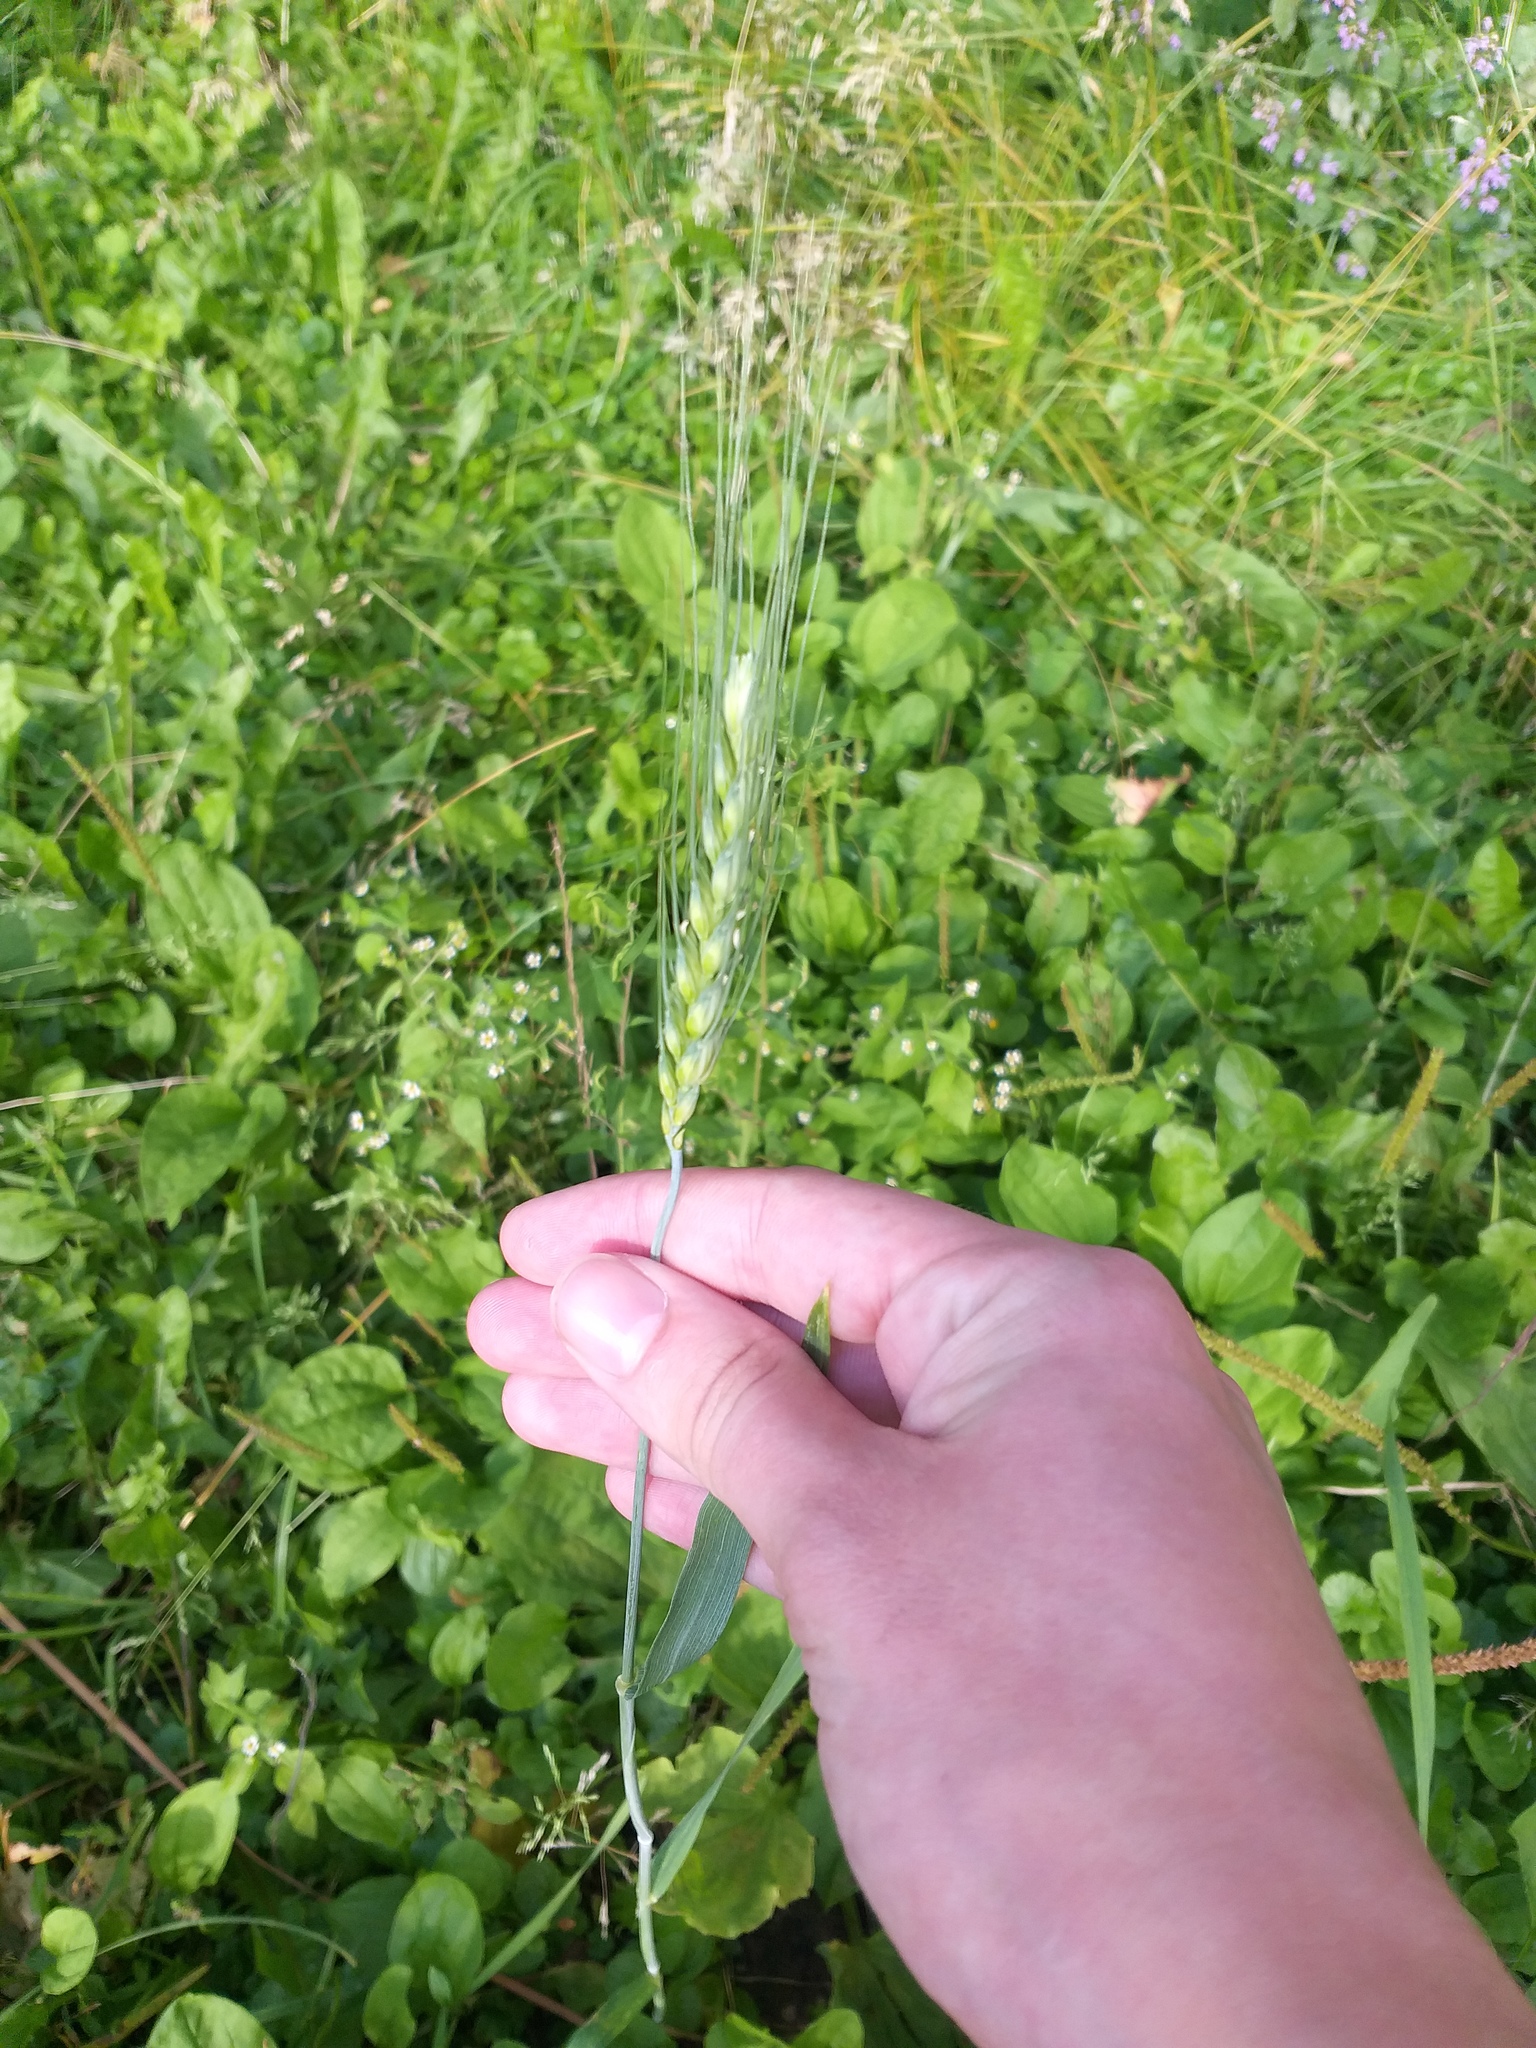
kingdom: Plantae
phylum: Tracheophyta
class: Liliopsida
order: Poales
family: Poaceae
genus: Triticum
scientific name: Triticum aestivum
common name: Common wheat
